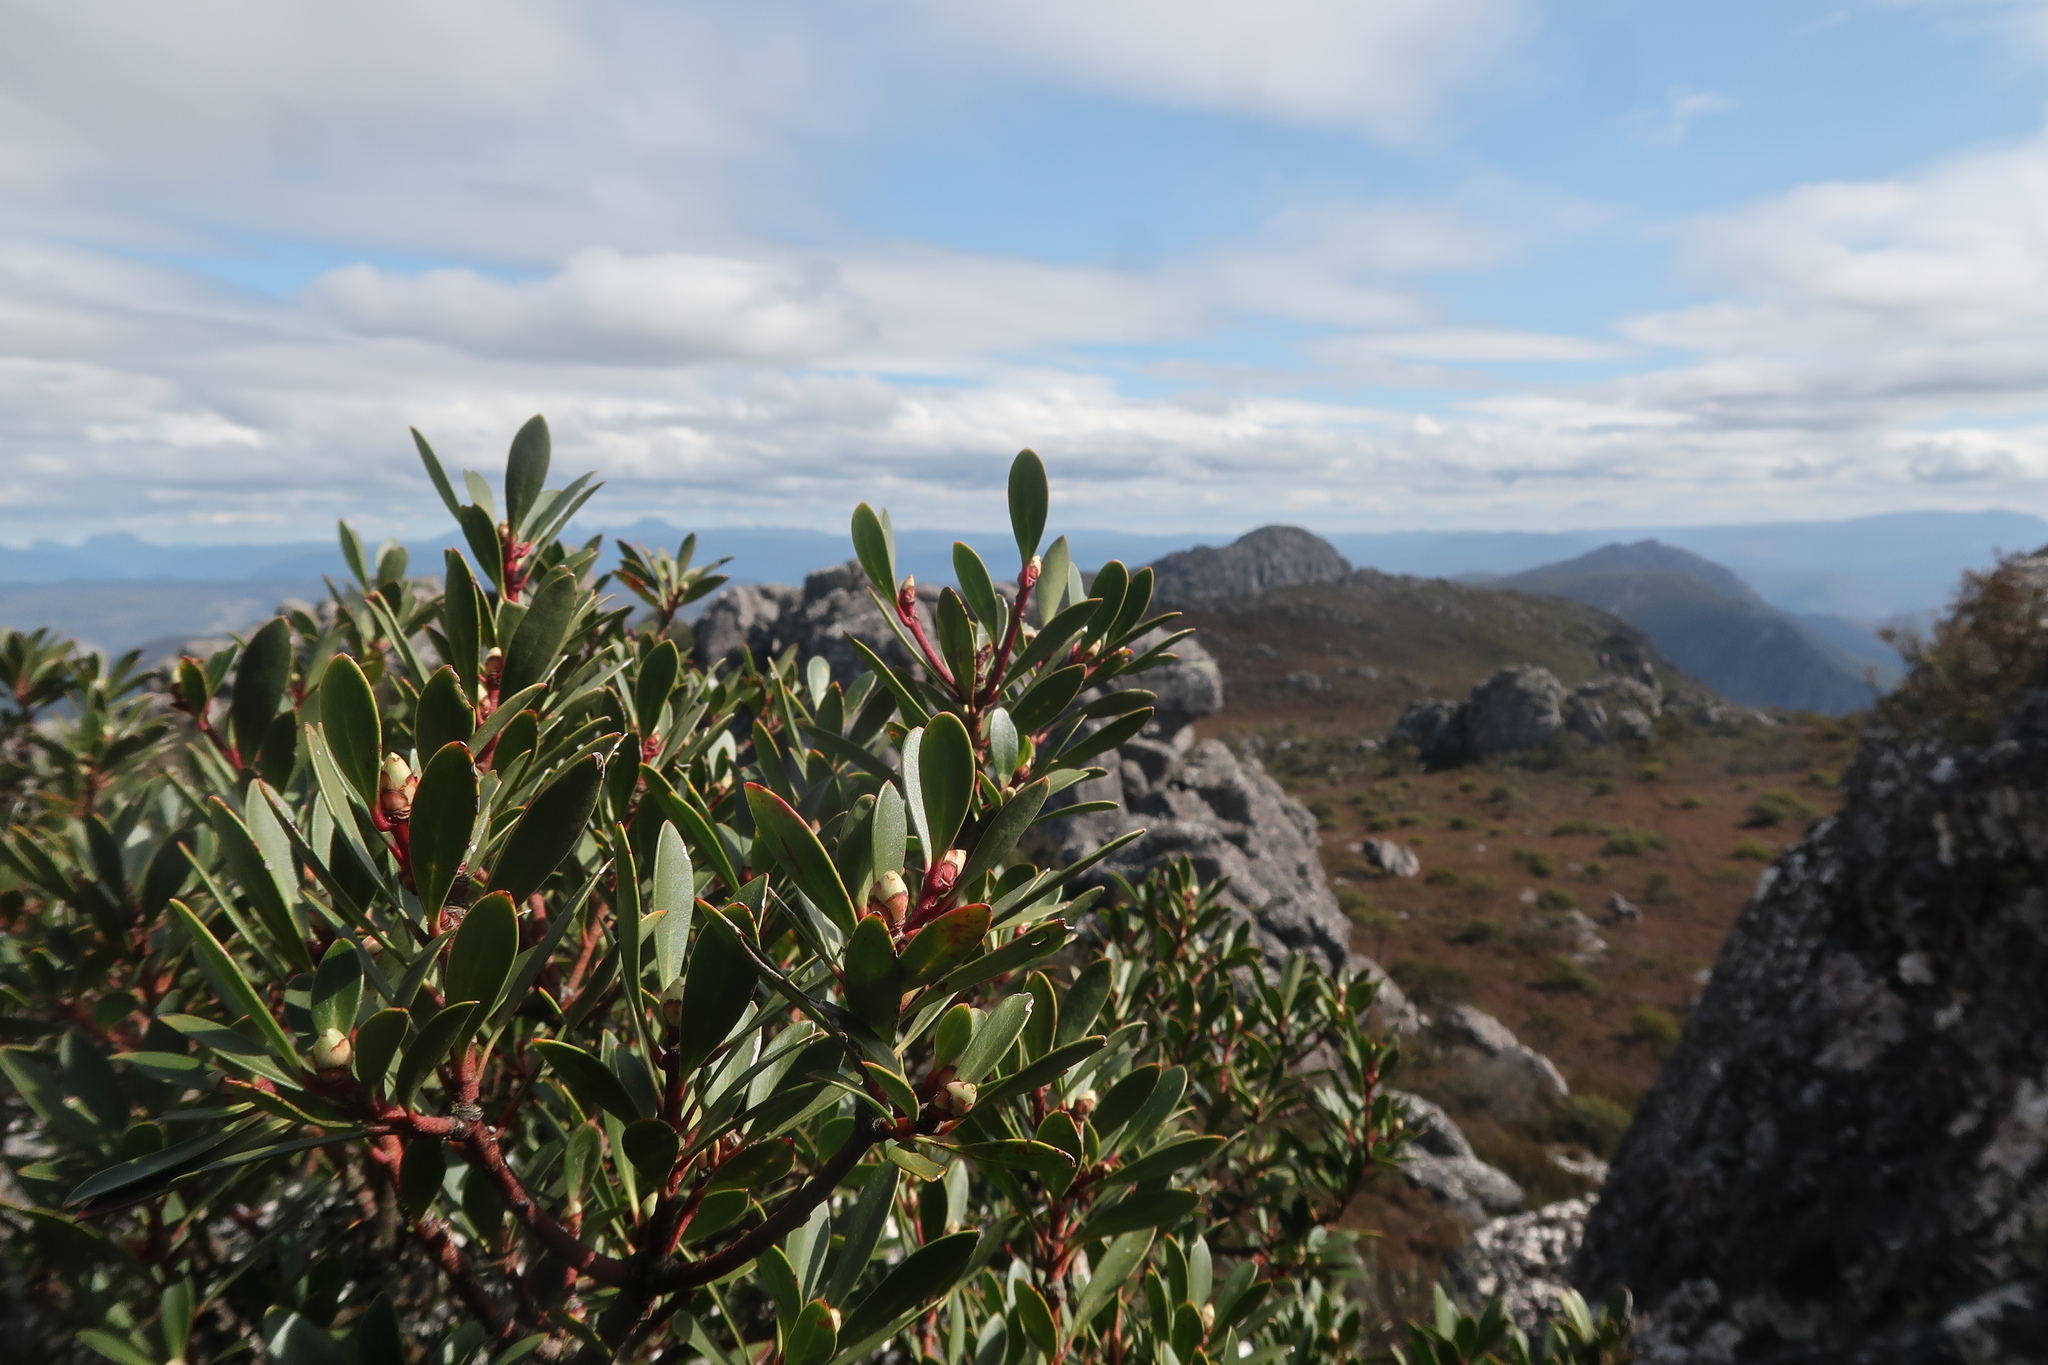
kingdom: Plantae
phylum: Tracheophyta
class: Magnoliopsida
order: Canellales
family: Winteraceae
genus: Drimys
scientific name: Drimys aromatica
